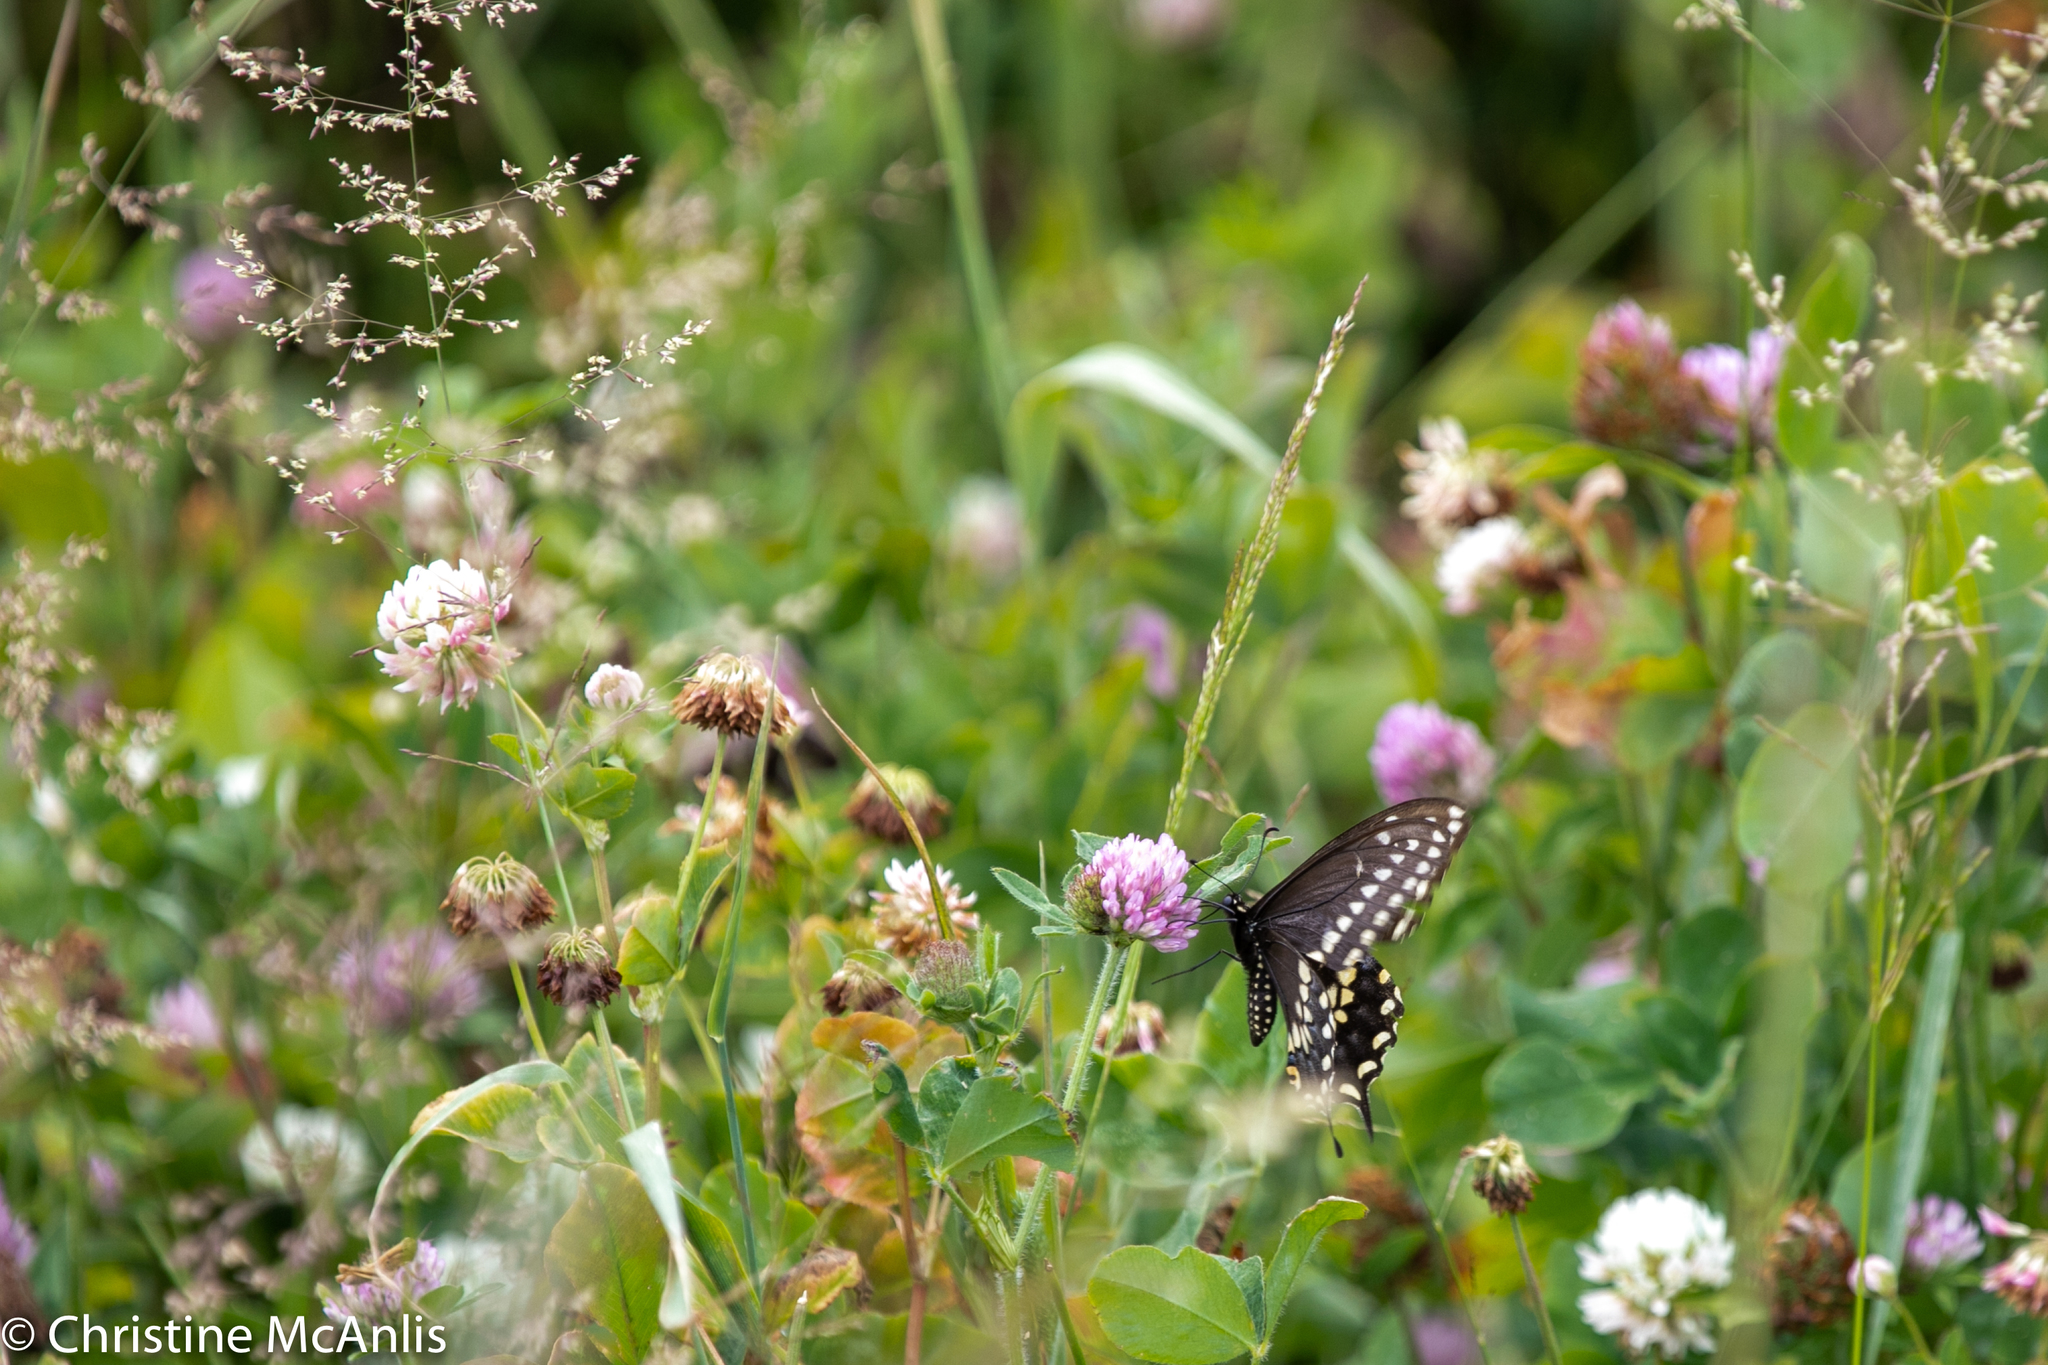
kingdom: Animalia
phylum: Arthropoda
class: Insecta
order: Lepidoptera
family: Papilionidae
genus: Papilio
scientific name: Papilio polyxenes
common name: Black swallowtail
